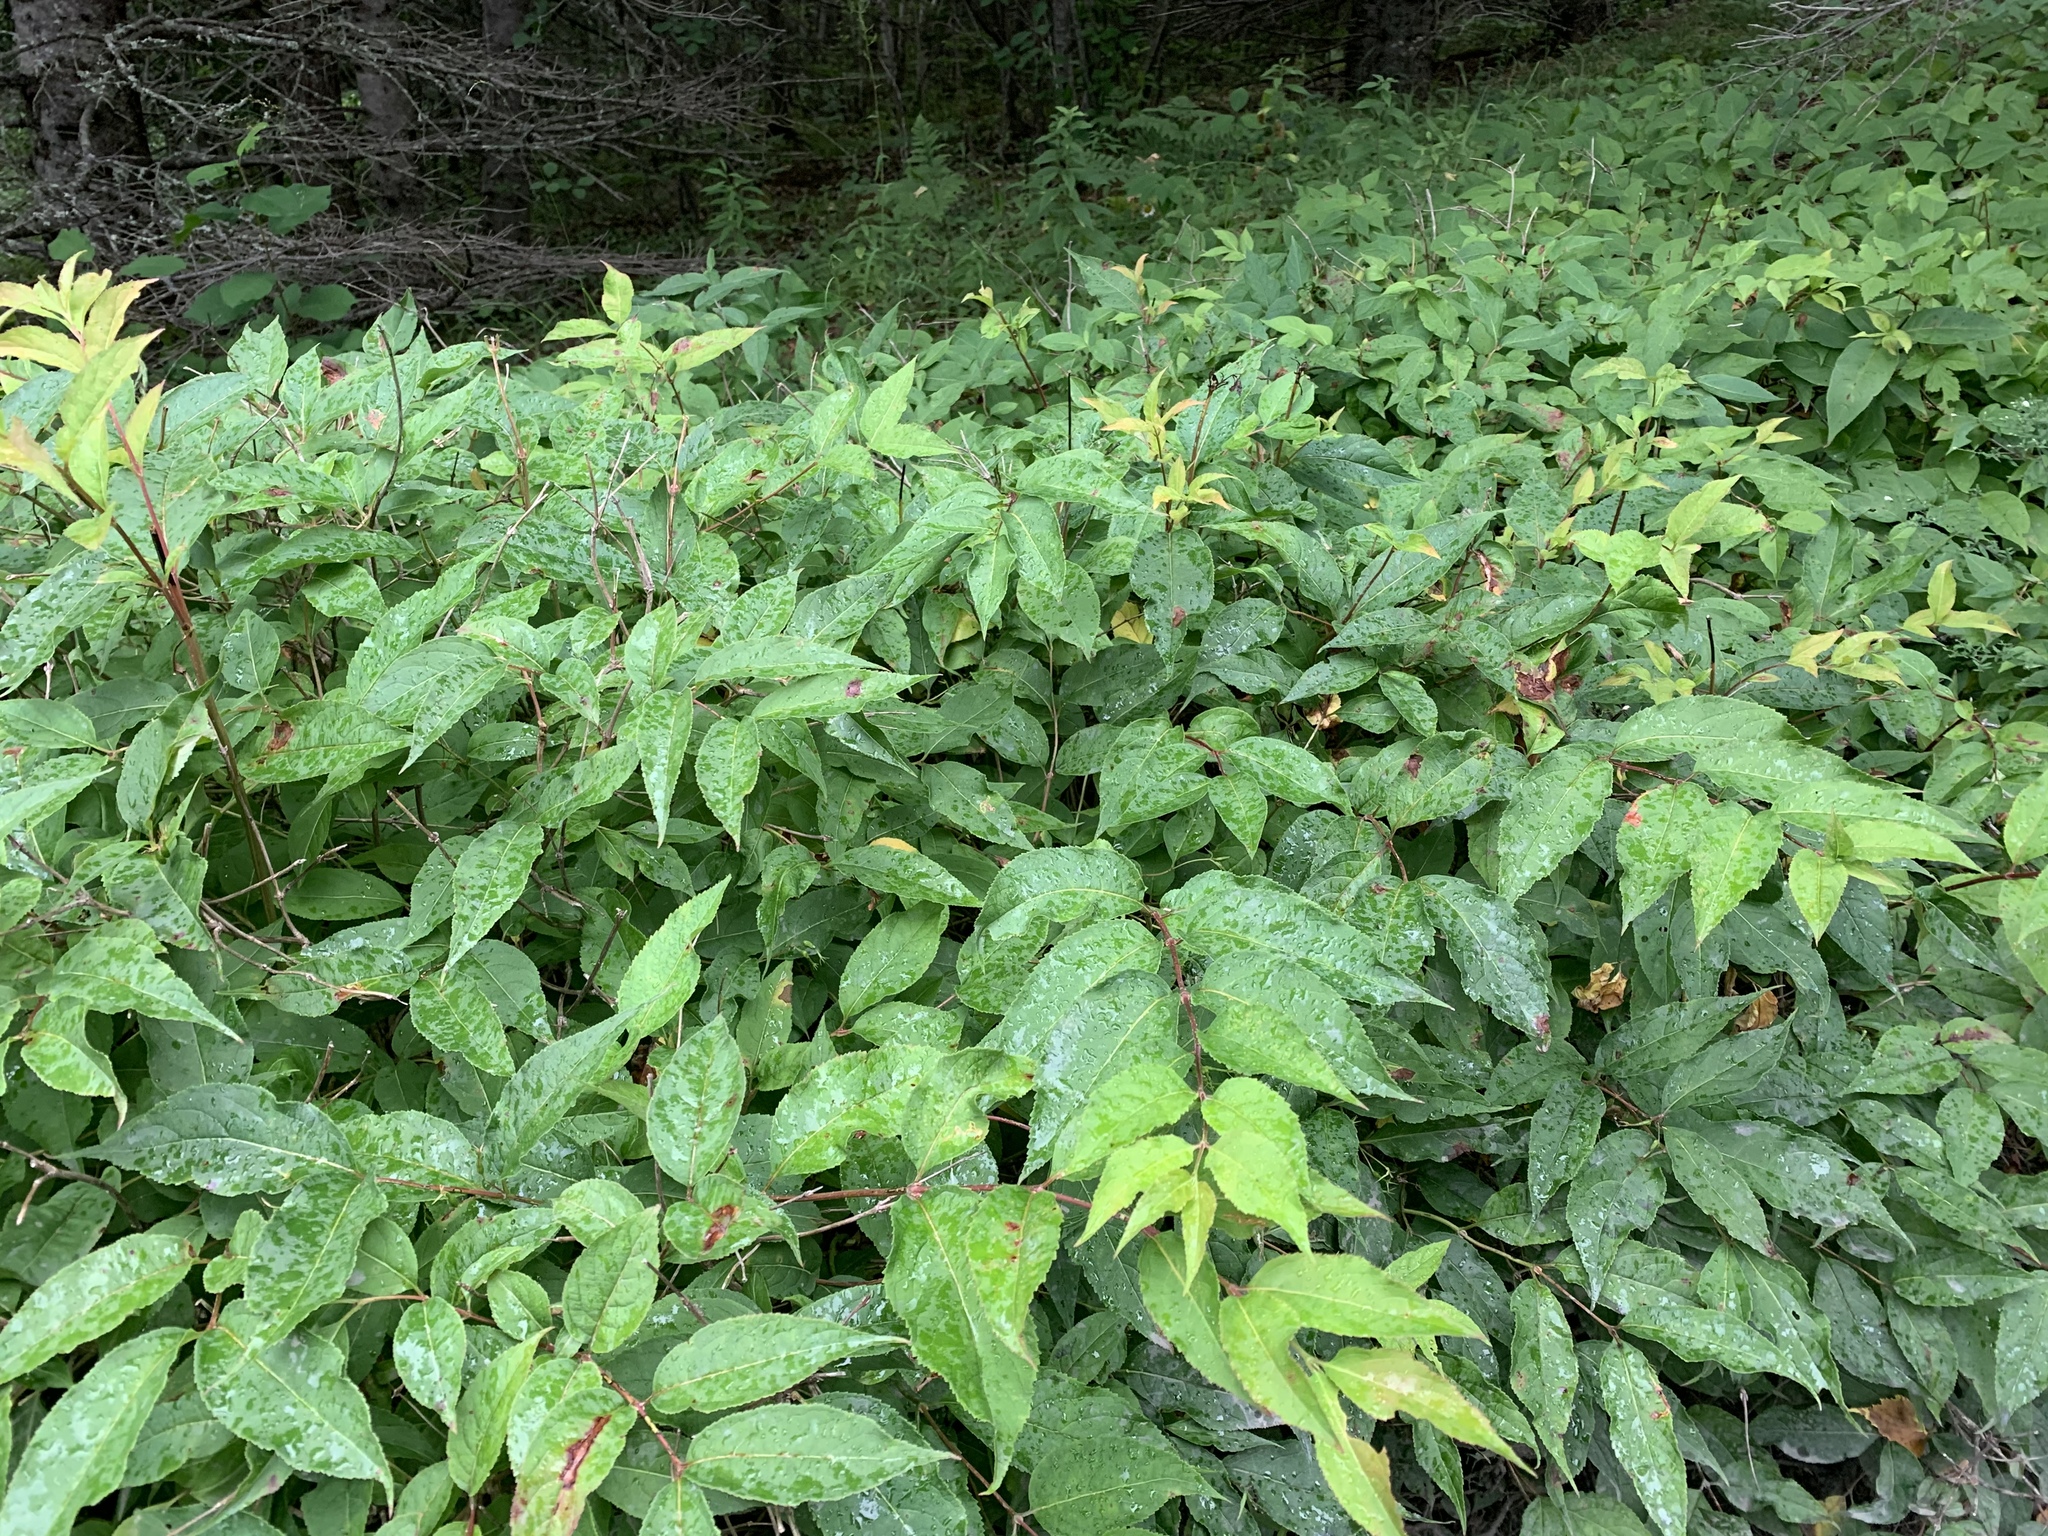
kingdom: Plantae
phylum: Tracheophyta
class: Magnoliopsida
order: Dipsacales
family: Caprifoliaceae
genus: Diervilla
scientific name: Diervilla lonicera
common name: Bush-honeysuckle
